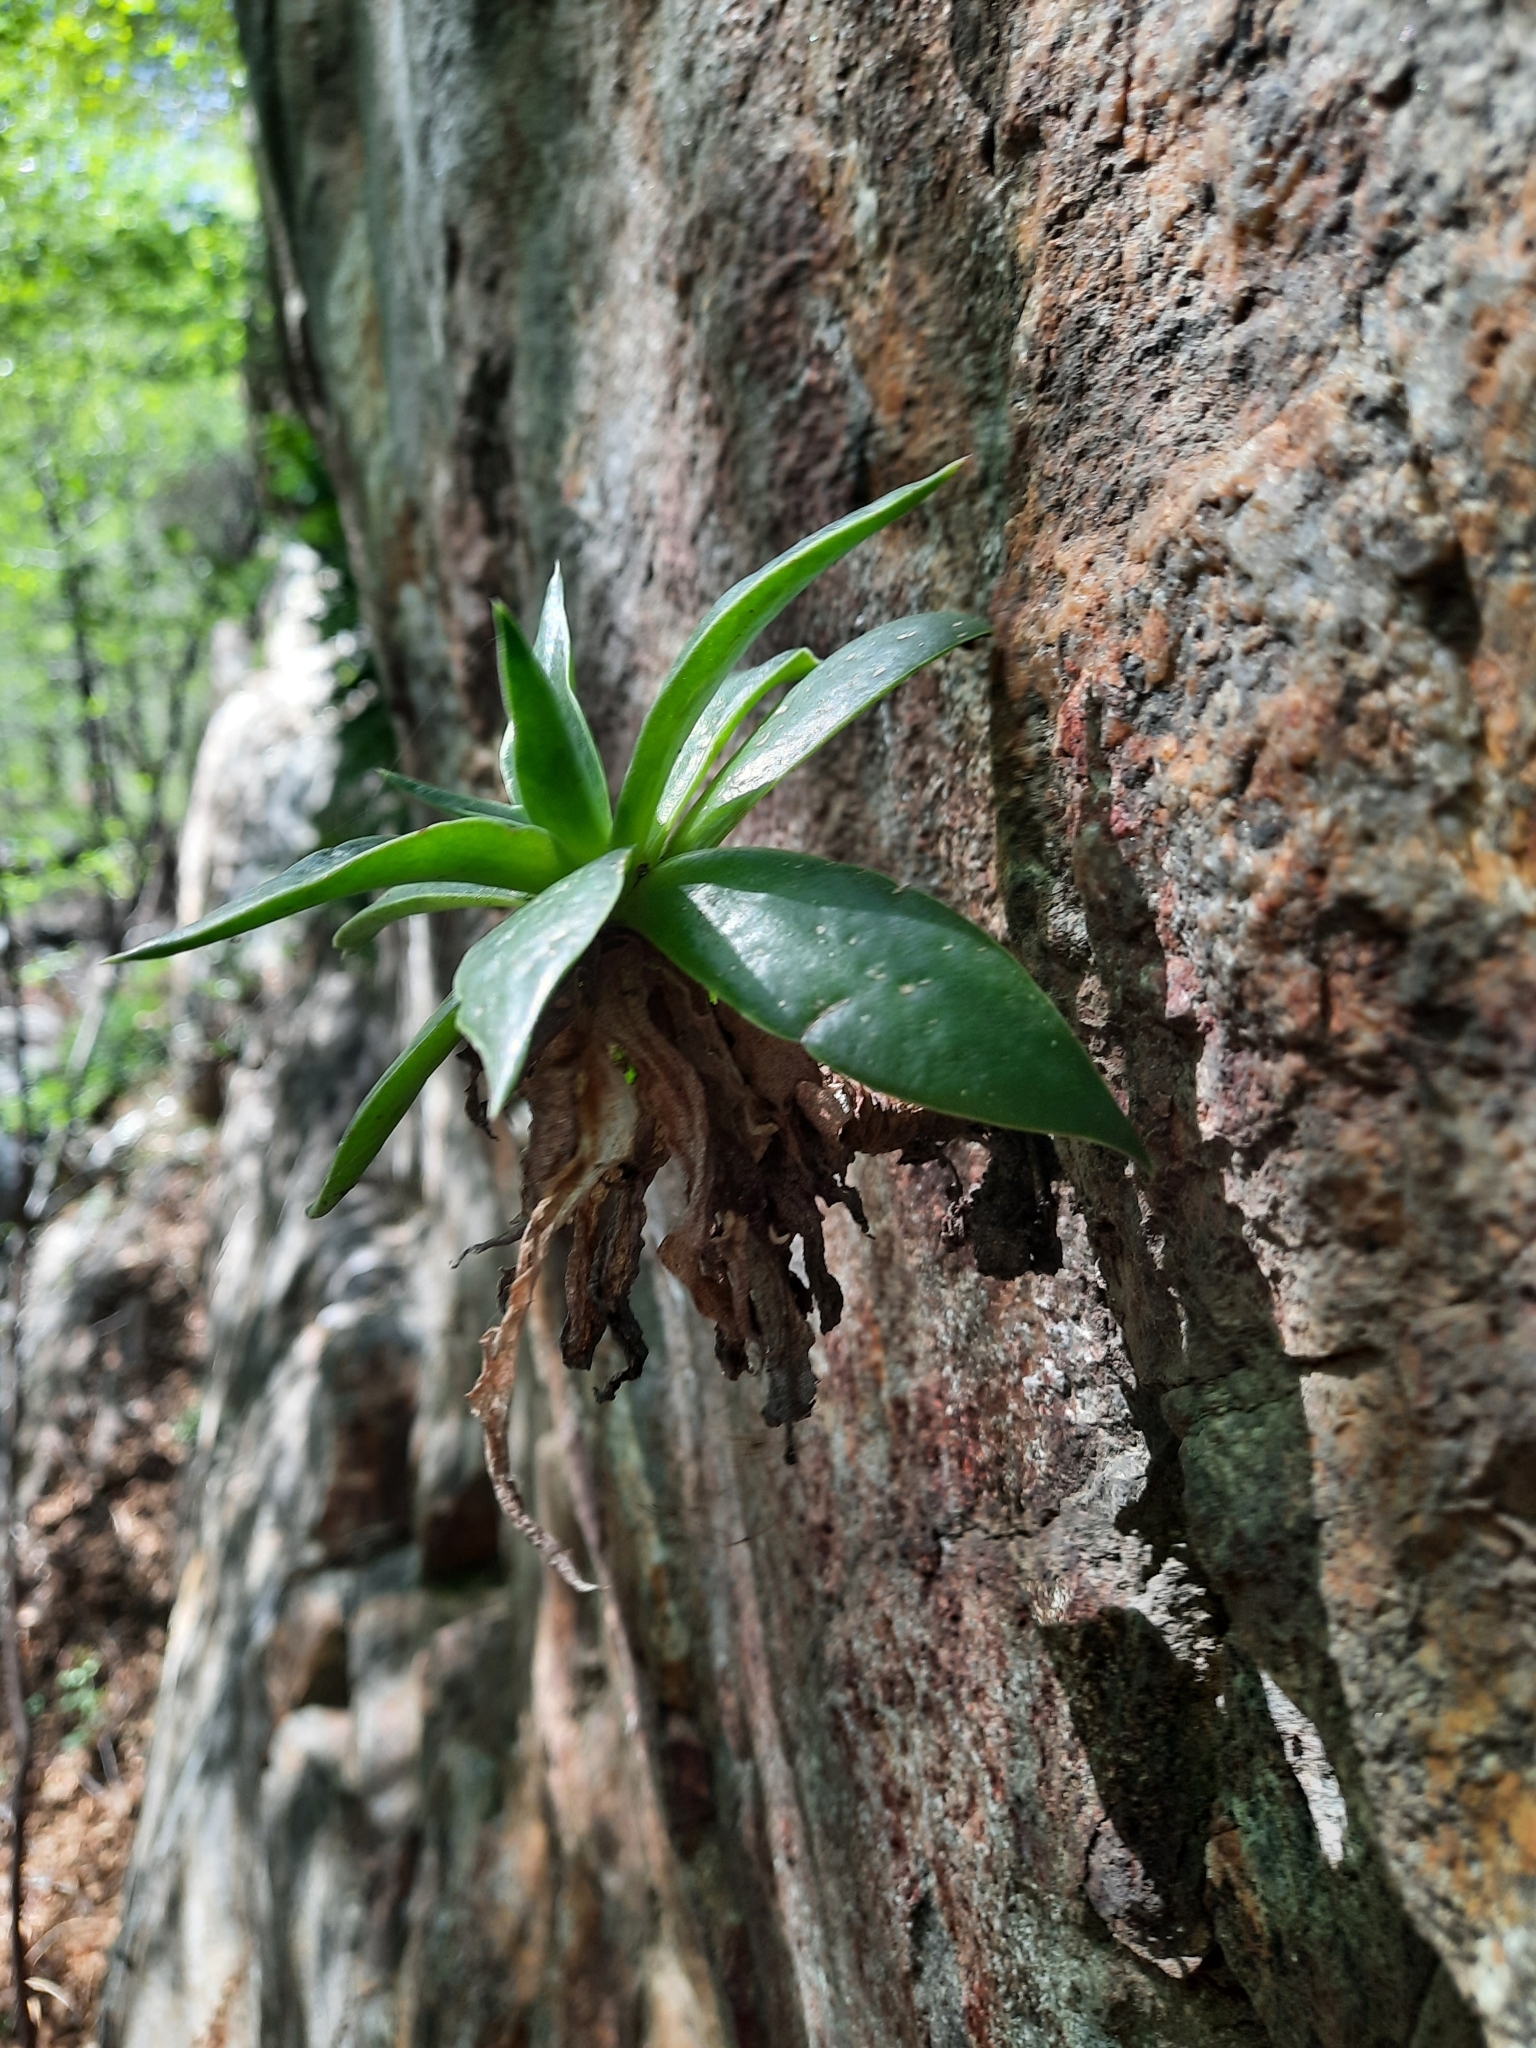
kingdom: Plantae
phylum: Tracheophyta
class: Magnoliopsida
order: Saxifragales
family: Crassulaceae
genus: Dudleya
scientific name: Dudleya lanceolata
